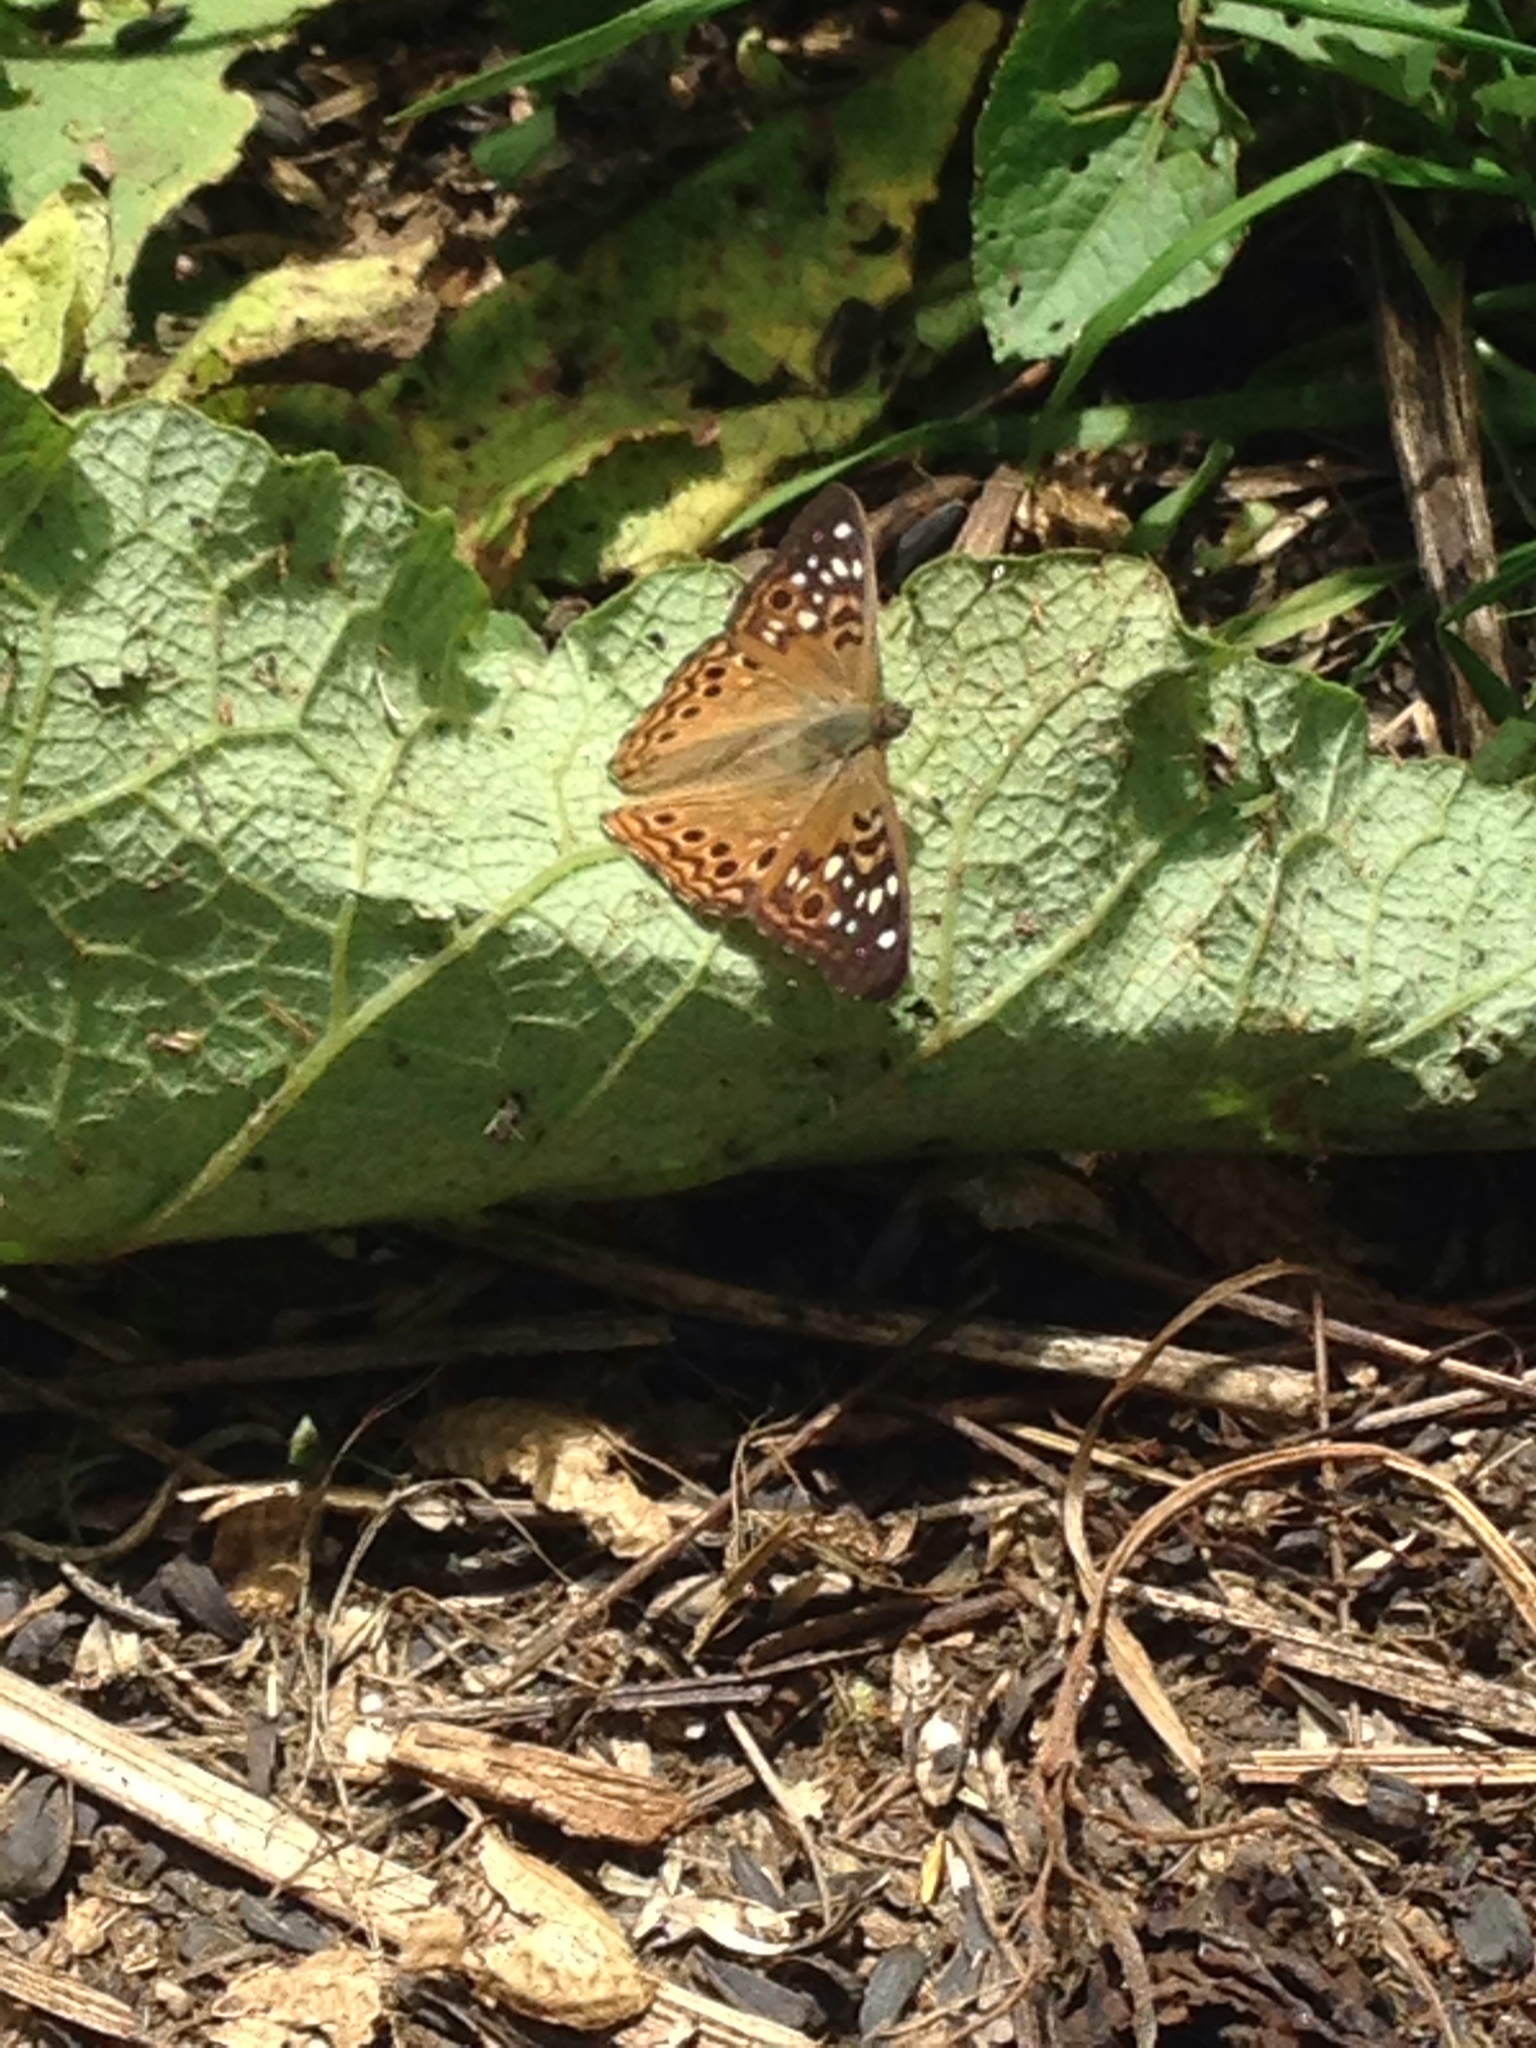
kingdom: Animalia
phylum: Arthropoda
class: Insecta
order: Lepidoptera
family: Nymphalidae
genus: Asterocampa
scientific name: Asterocampa celtis
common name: Hackberry emperor
